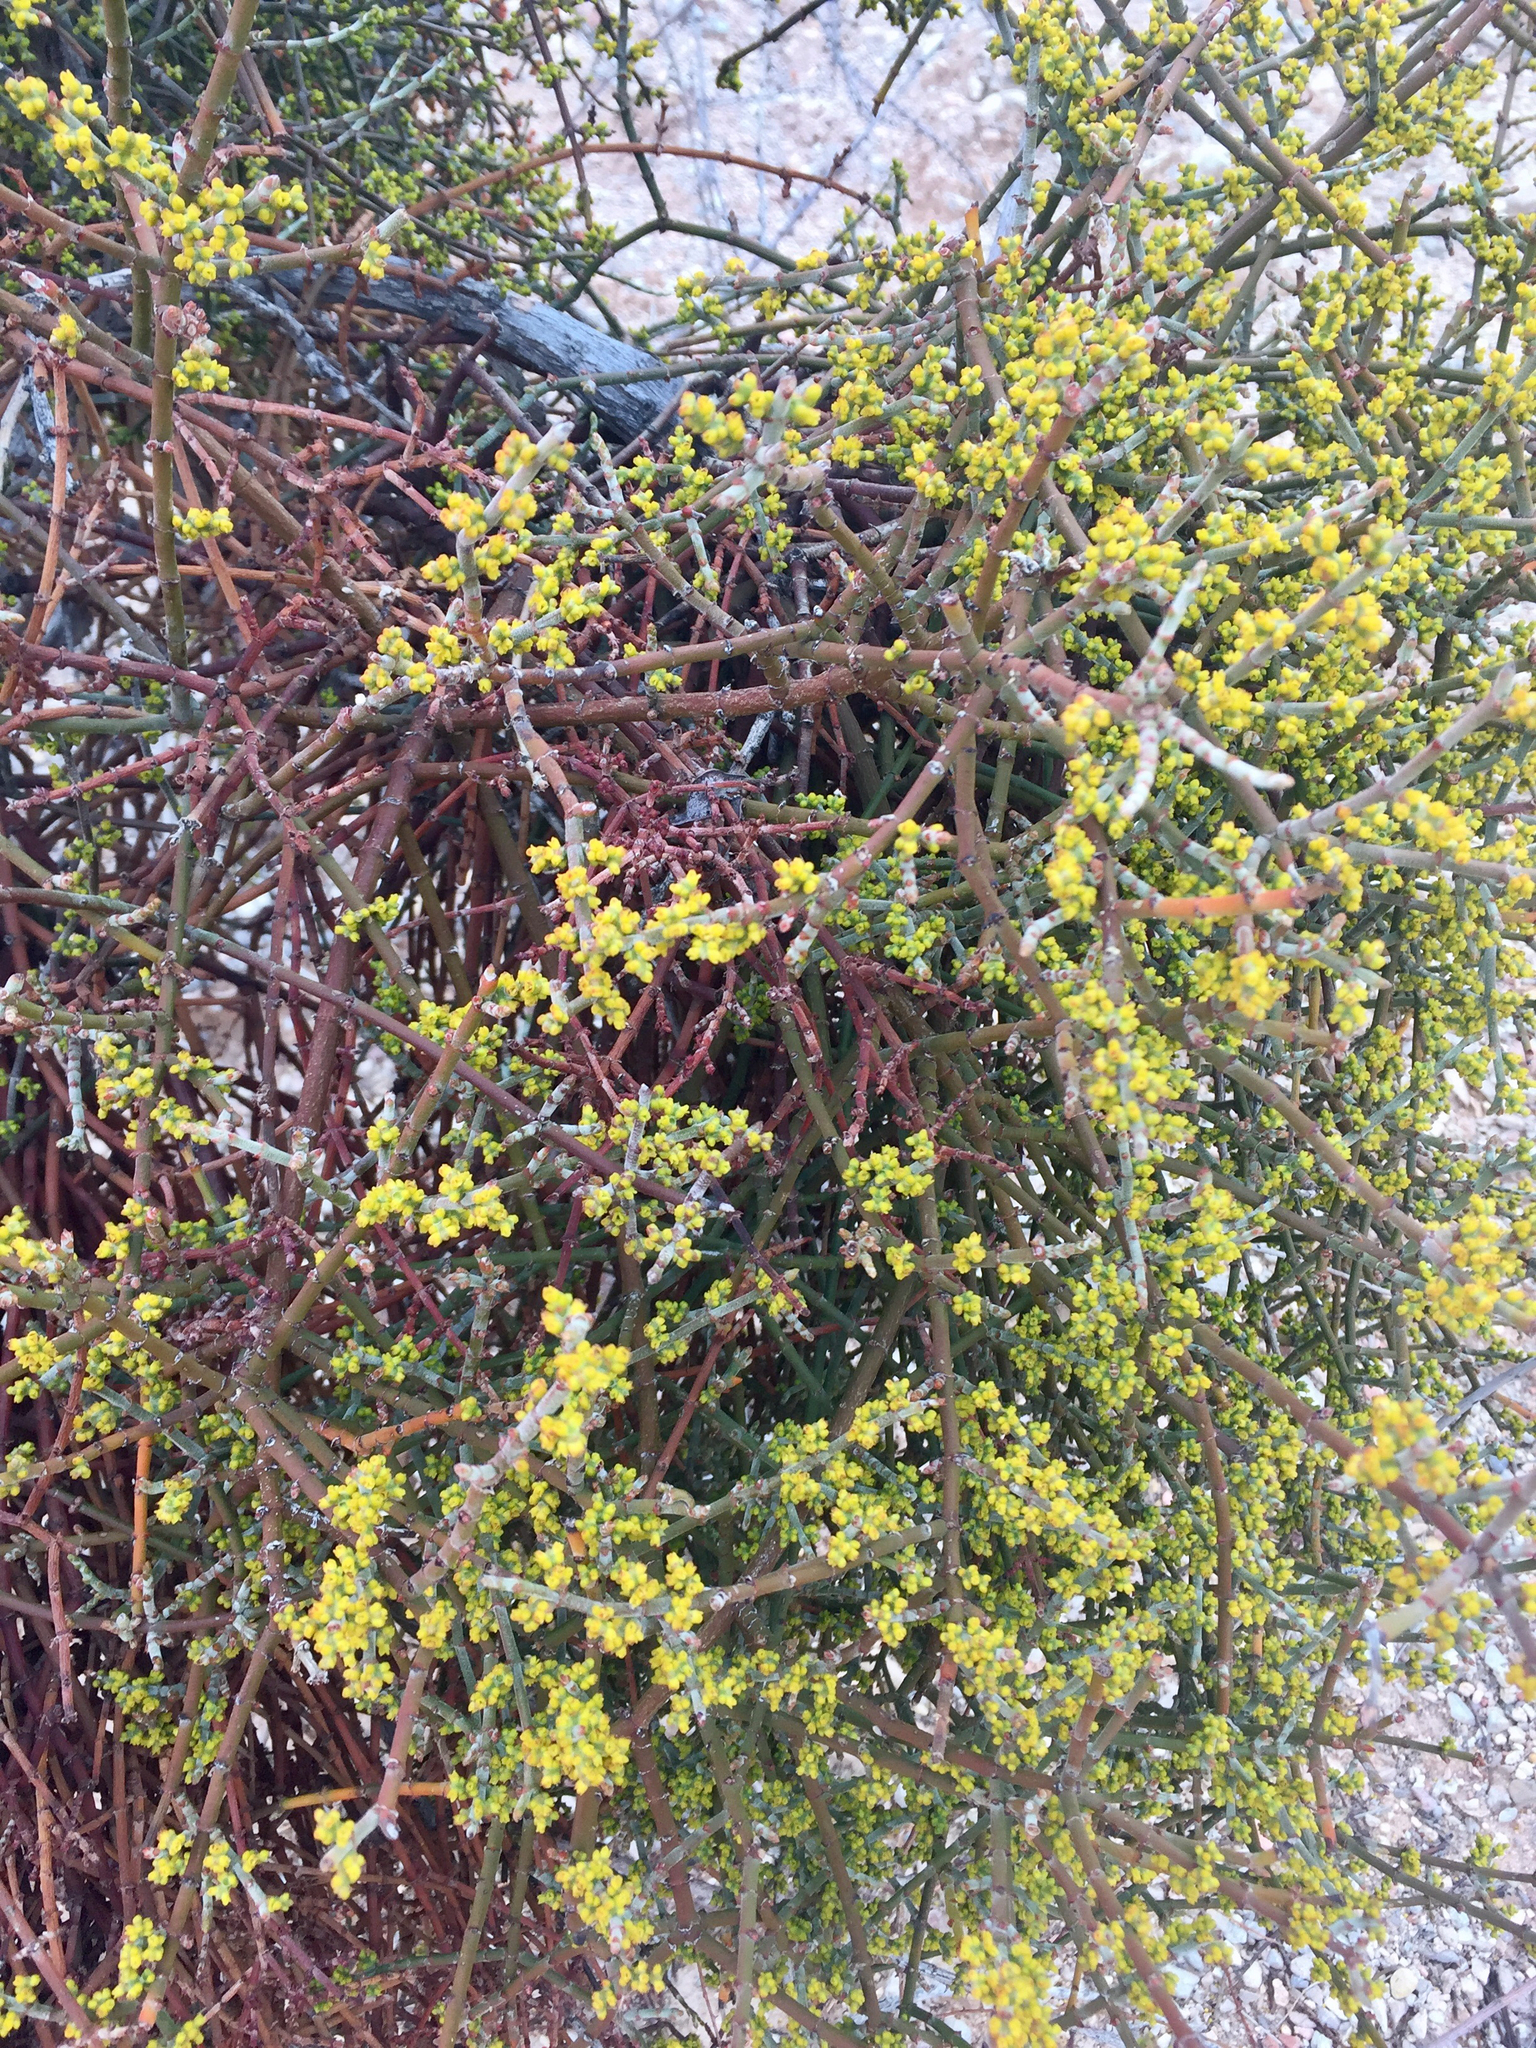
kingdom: Plantae
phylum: Tracheophyta
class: Magnoliopsida
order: Santalales
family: Viscaceae
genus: Phoradendron
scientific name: Phoradendron californicum
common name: Acacia mistletoe
